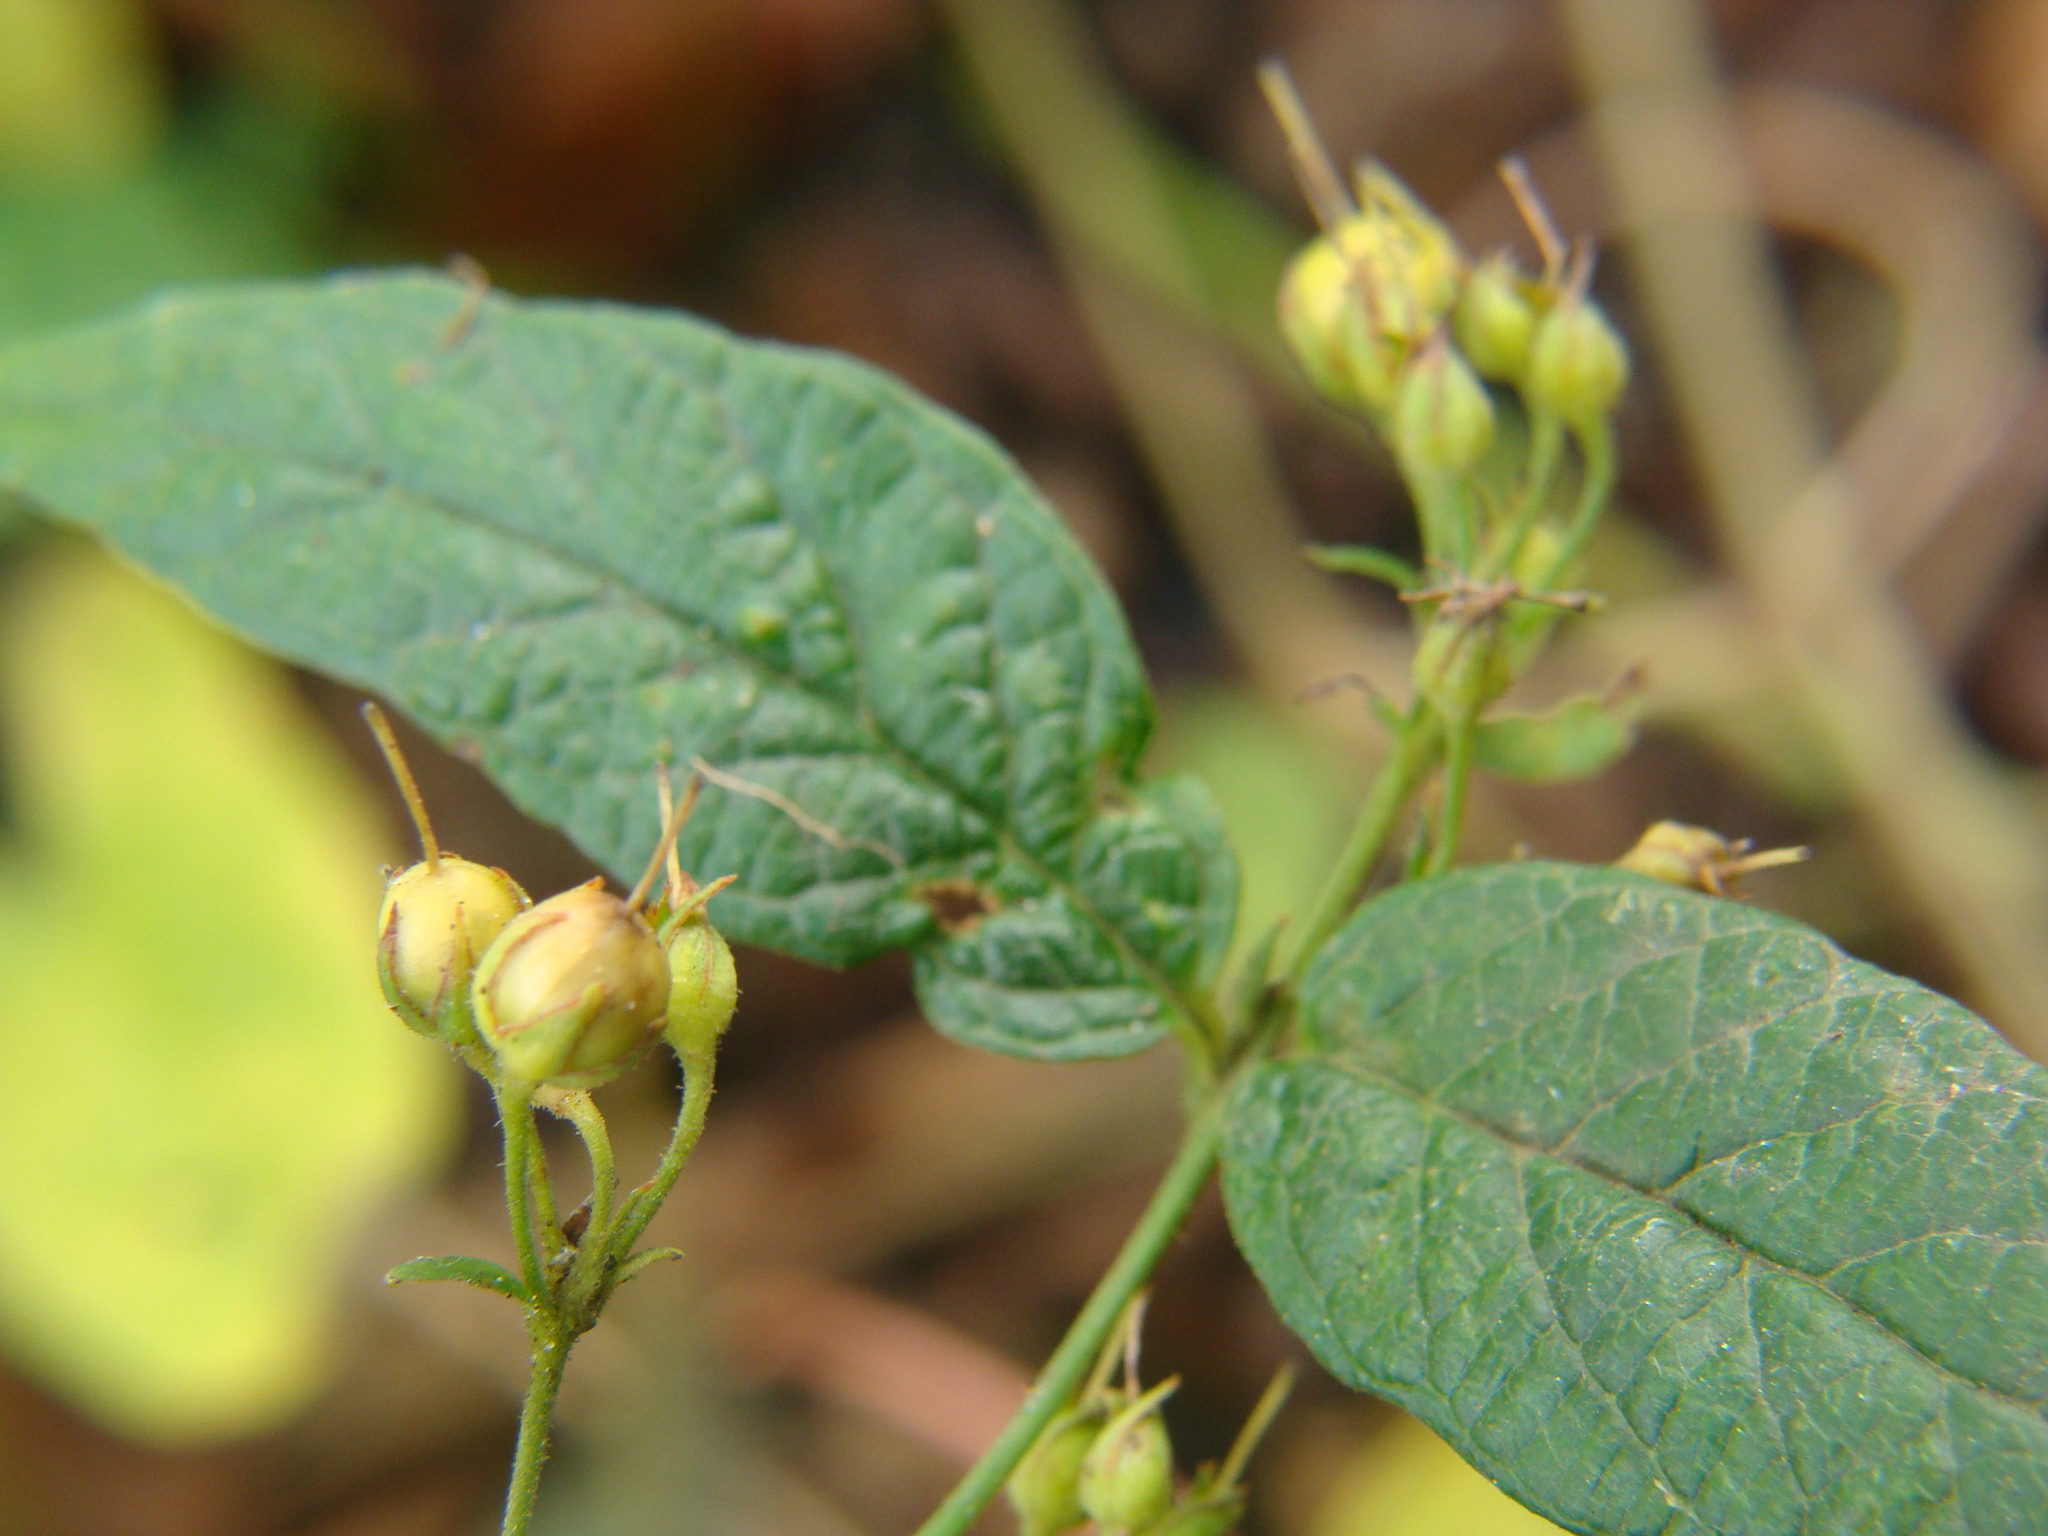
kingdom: Plantae
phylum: Tracheophyta
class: Magnoliopsida
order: Ericales
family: Primulaceae
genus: Lysimachia
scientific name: Lysimachia vulgaris
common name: Yellow loosestrife
